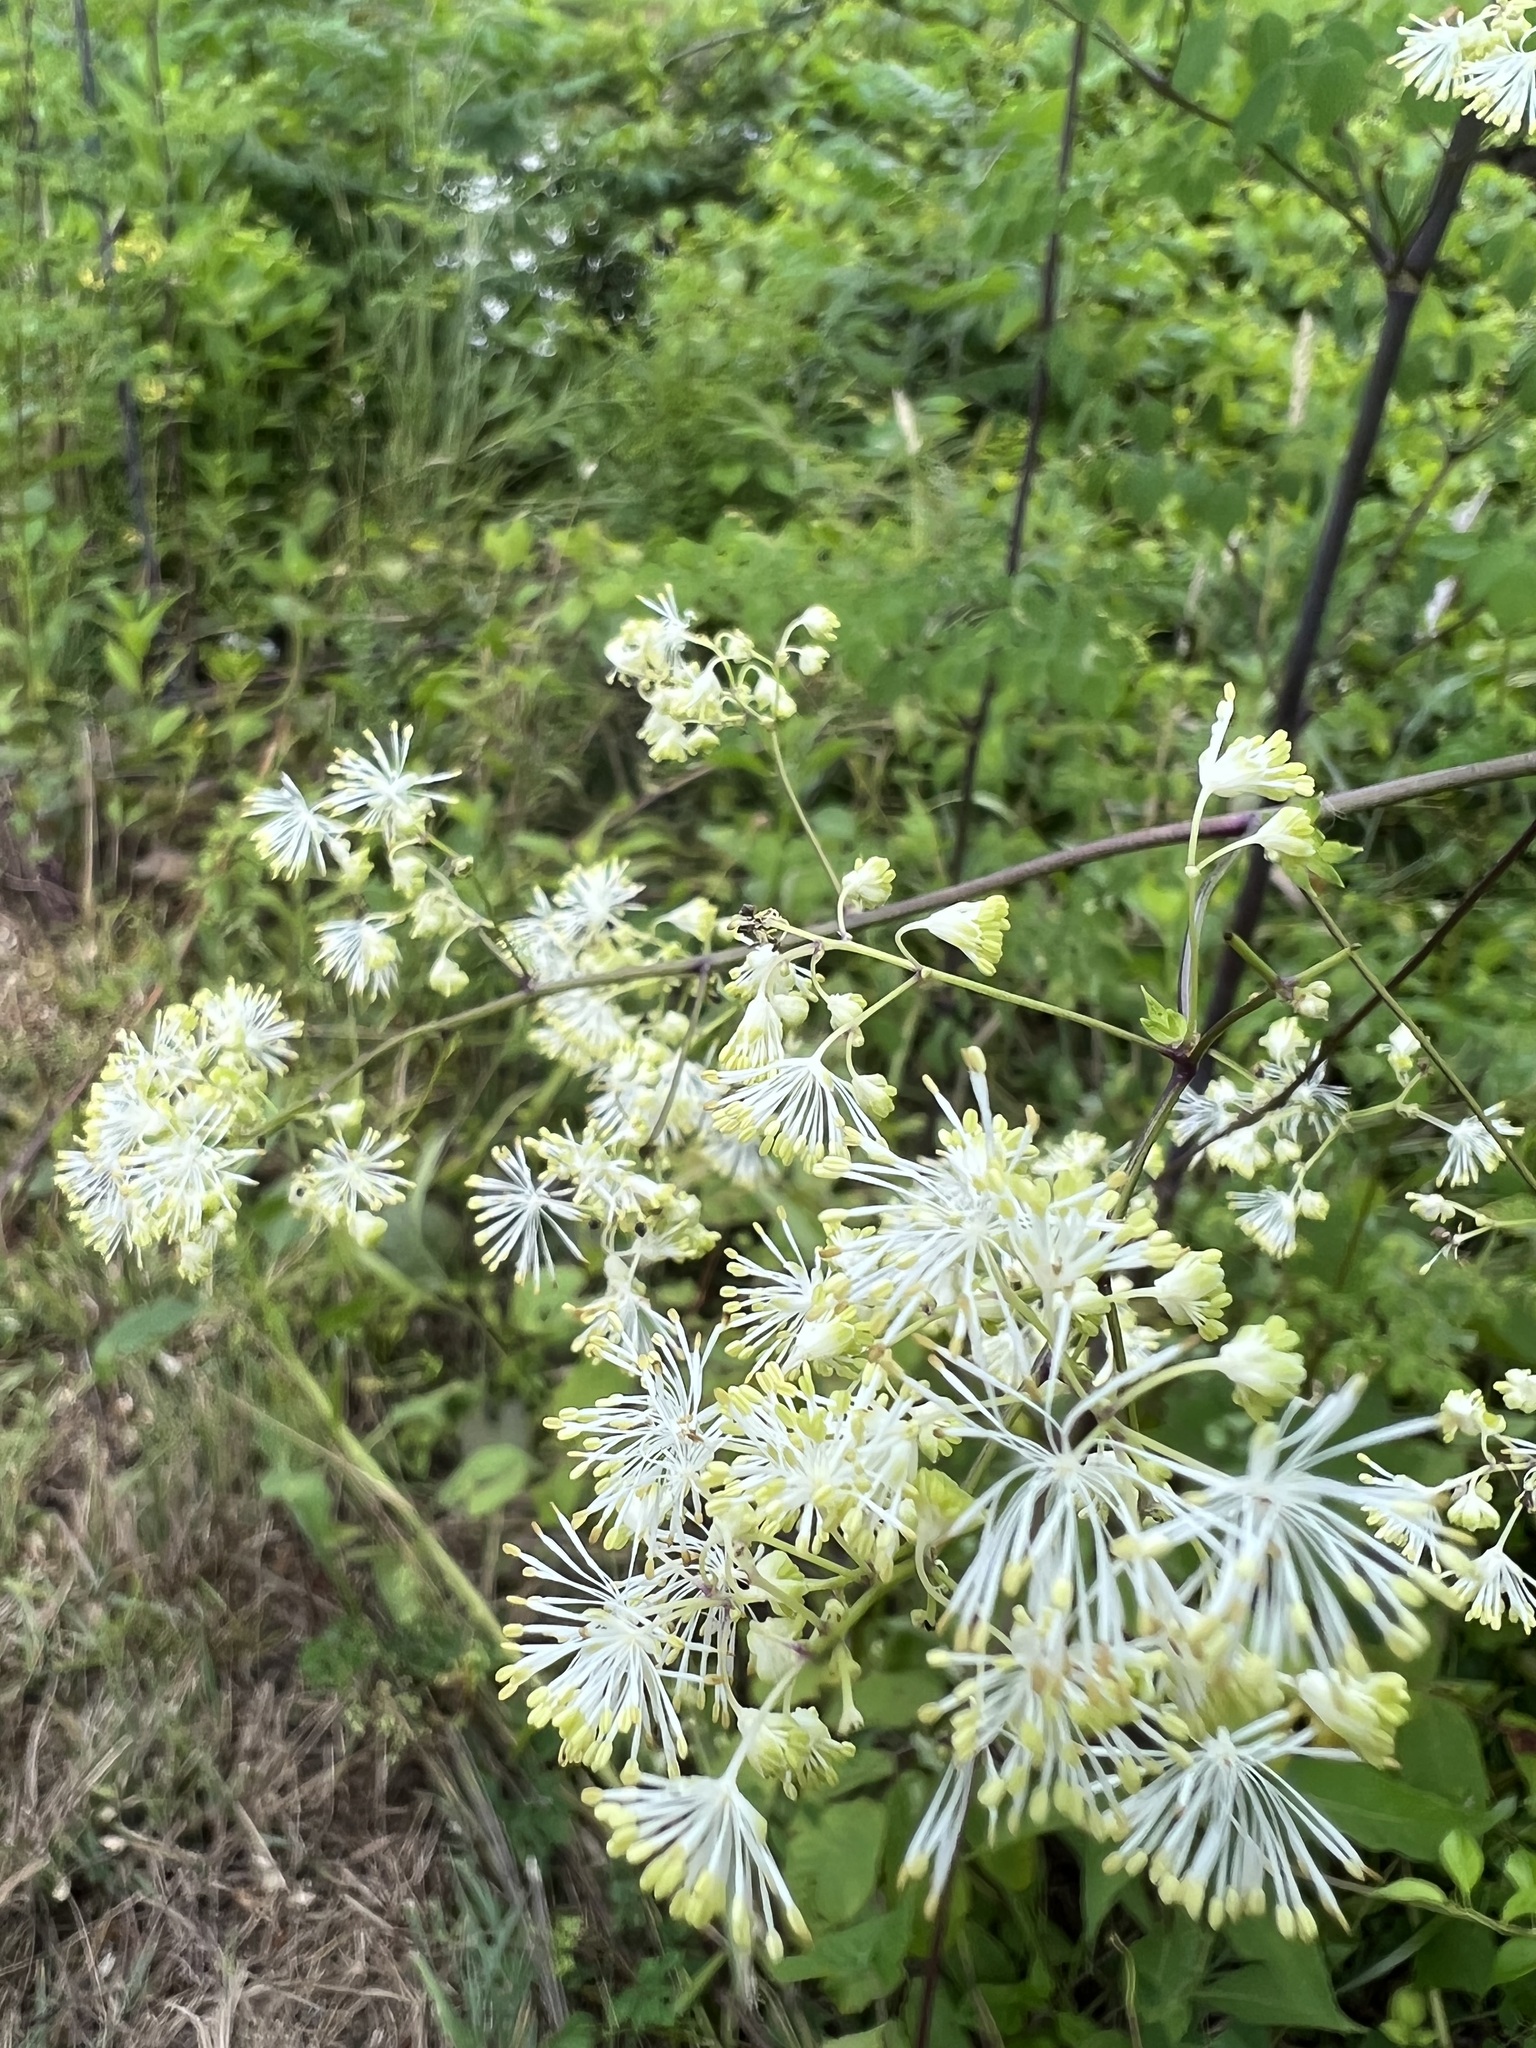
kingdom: Plantae
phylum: Tracheophyta
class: Magnoliopsida
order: Ranunculales
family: Ranunculaceae
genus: Thalictrum
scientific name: Thalictrum pubescens
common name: King-of-the-meadow
